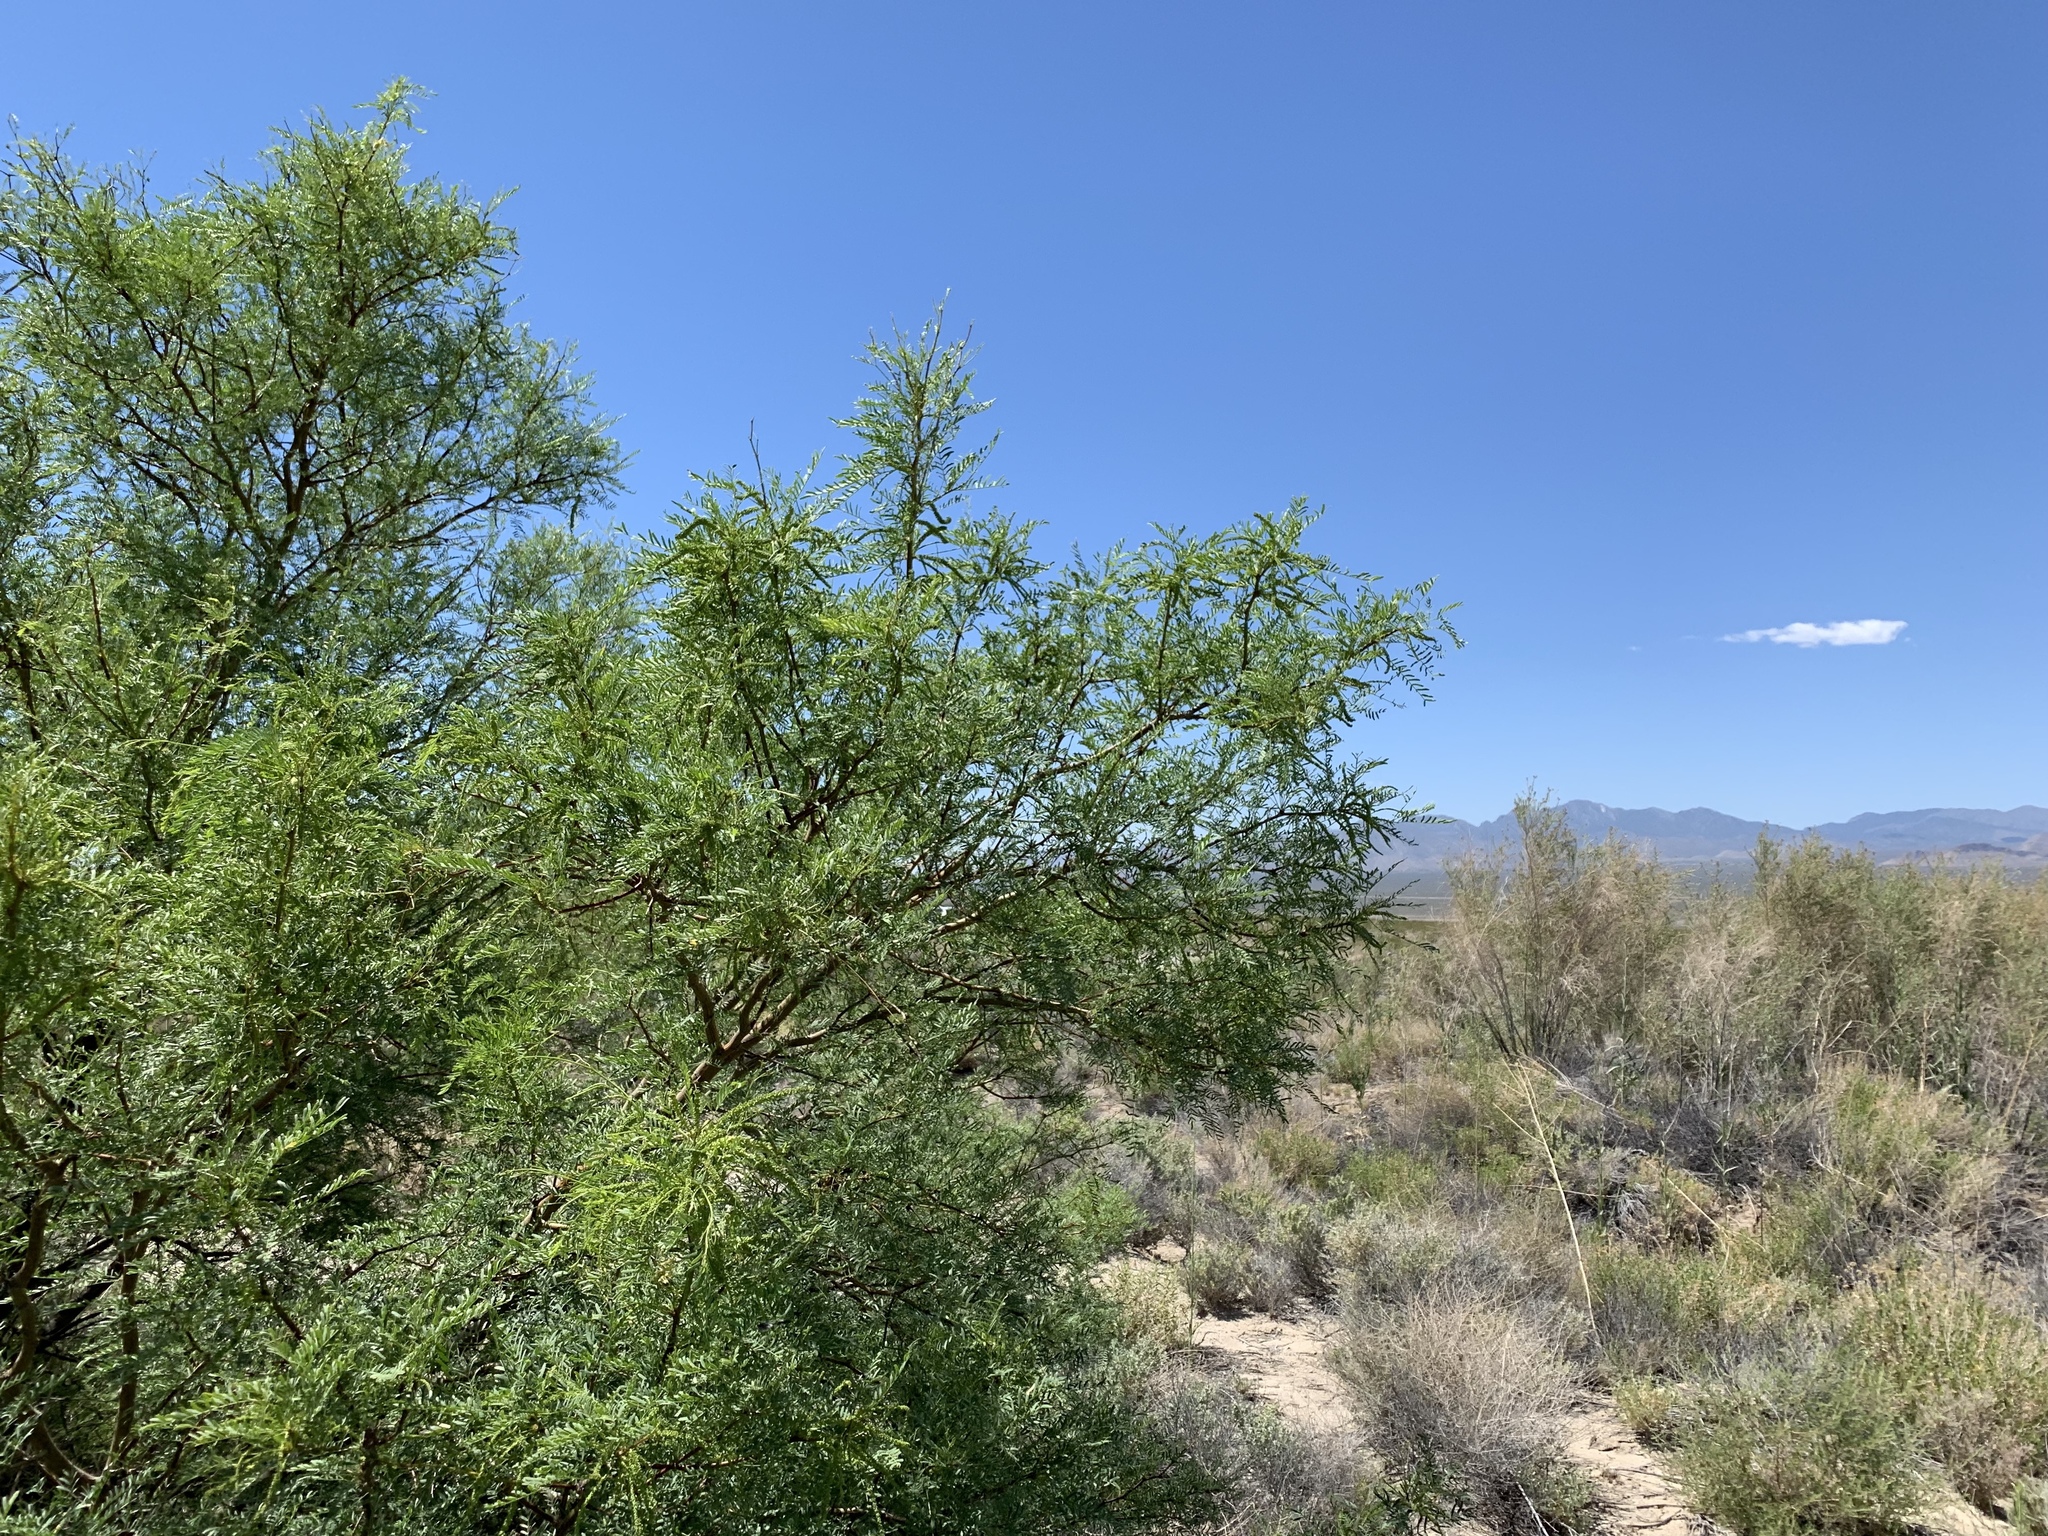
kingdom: Plantae
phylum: Tracheophyta
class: Magnoliopsida
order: Fabales
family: Fabaceae
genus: Prosopis
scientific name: Prosopis pubescens
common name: Screw-bean
